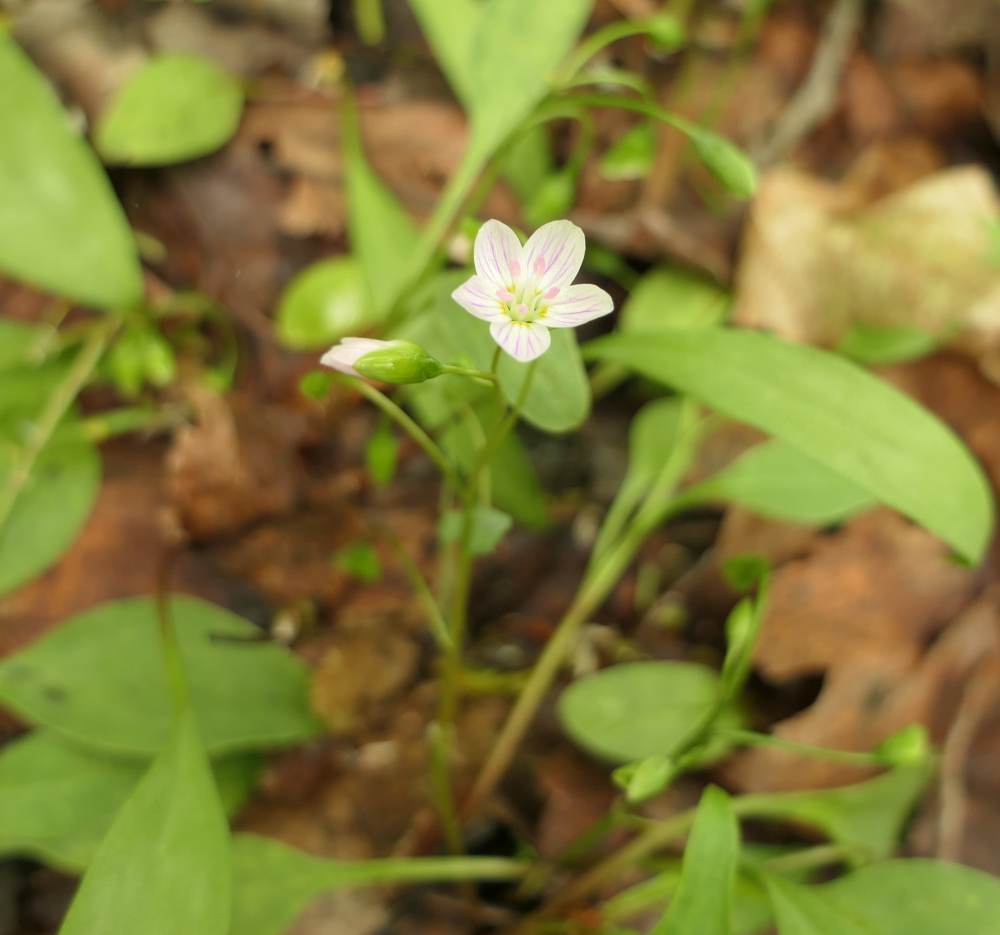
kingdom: Plantae
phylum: Tracheophyta
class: Magnoliopsida
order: Caryophyllales
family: Montiaceae
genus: Claytonia
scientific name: Claytonia caroliniana
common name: Carolina spring beauty
